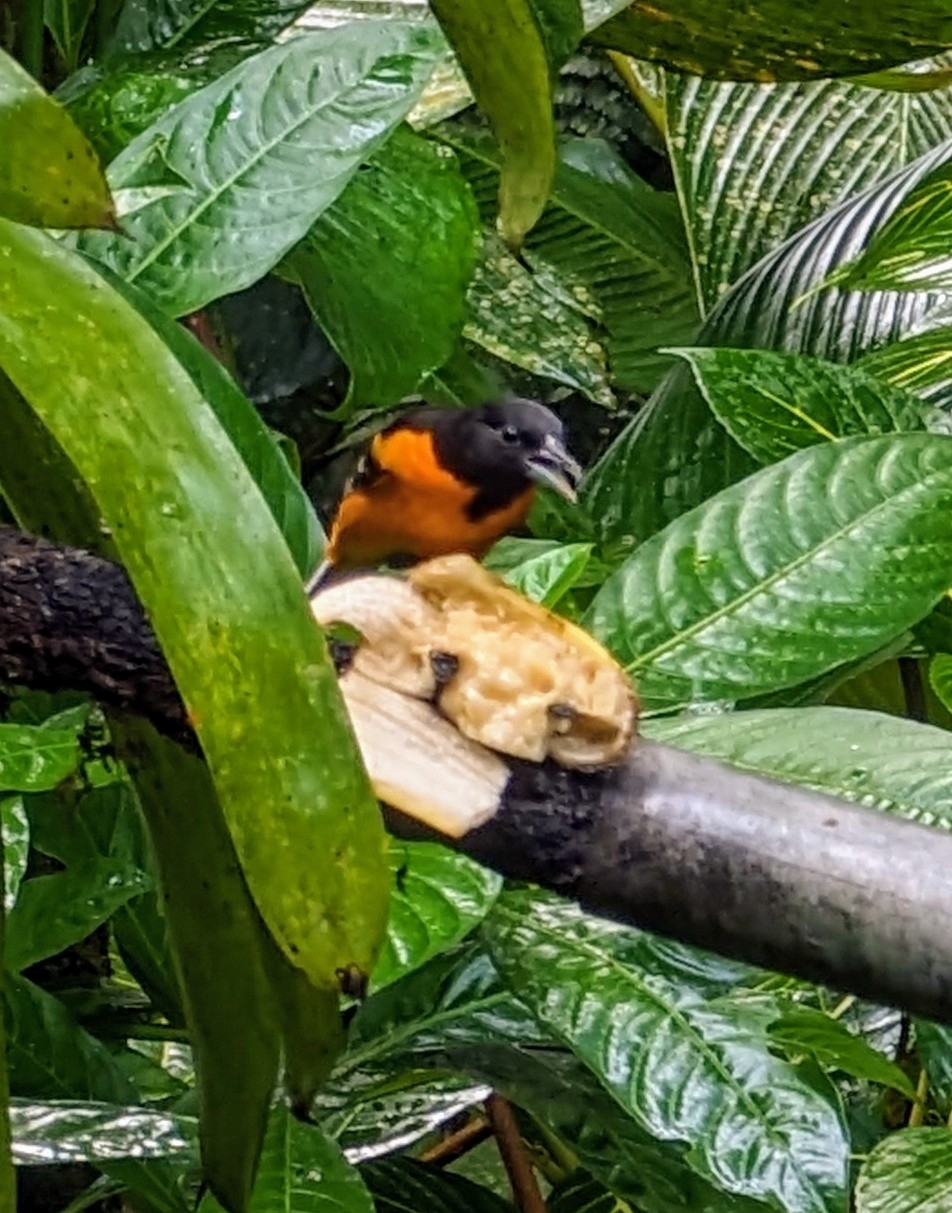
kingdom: Animalia
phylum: Chordata
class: Aves
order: Passeriformes
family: Icteridae
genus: Icterus
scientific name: Icterus galbula
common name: Baltimore oriole
